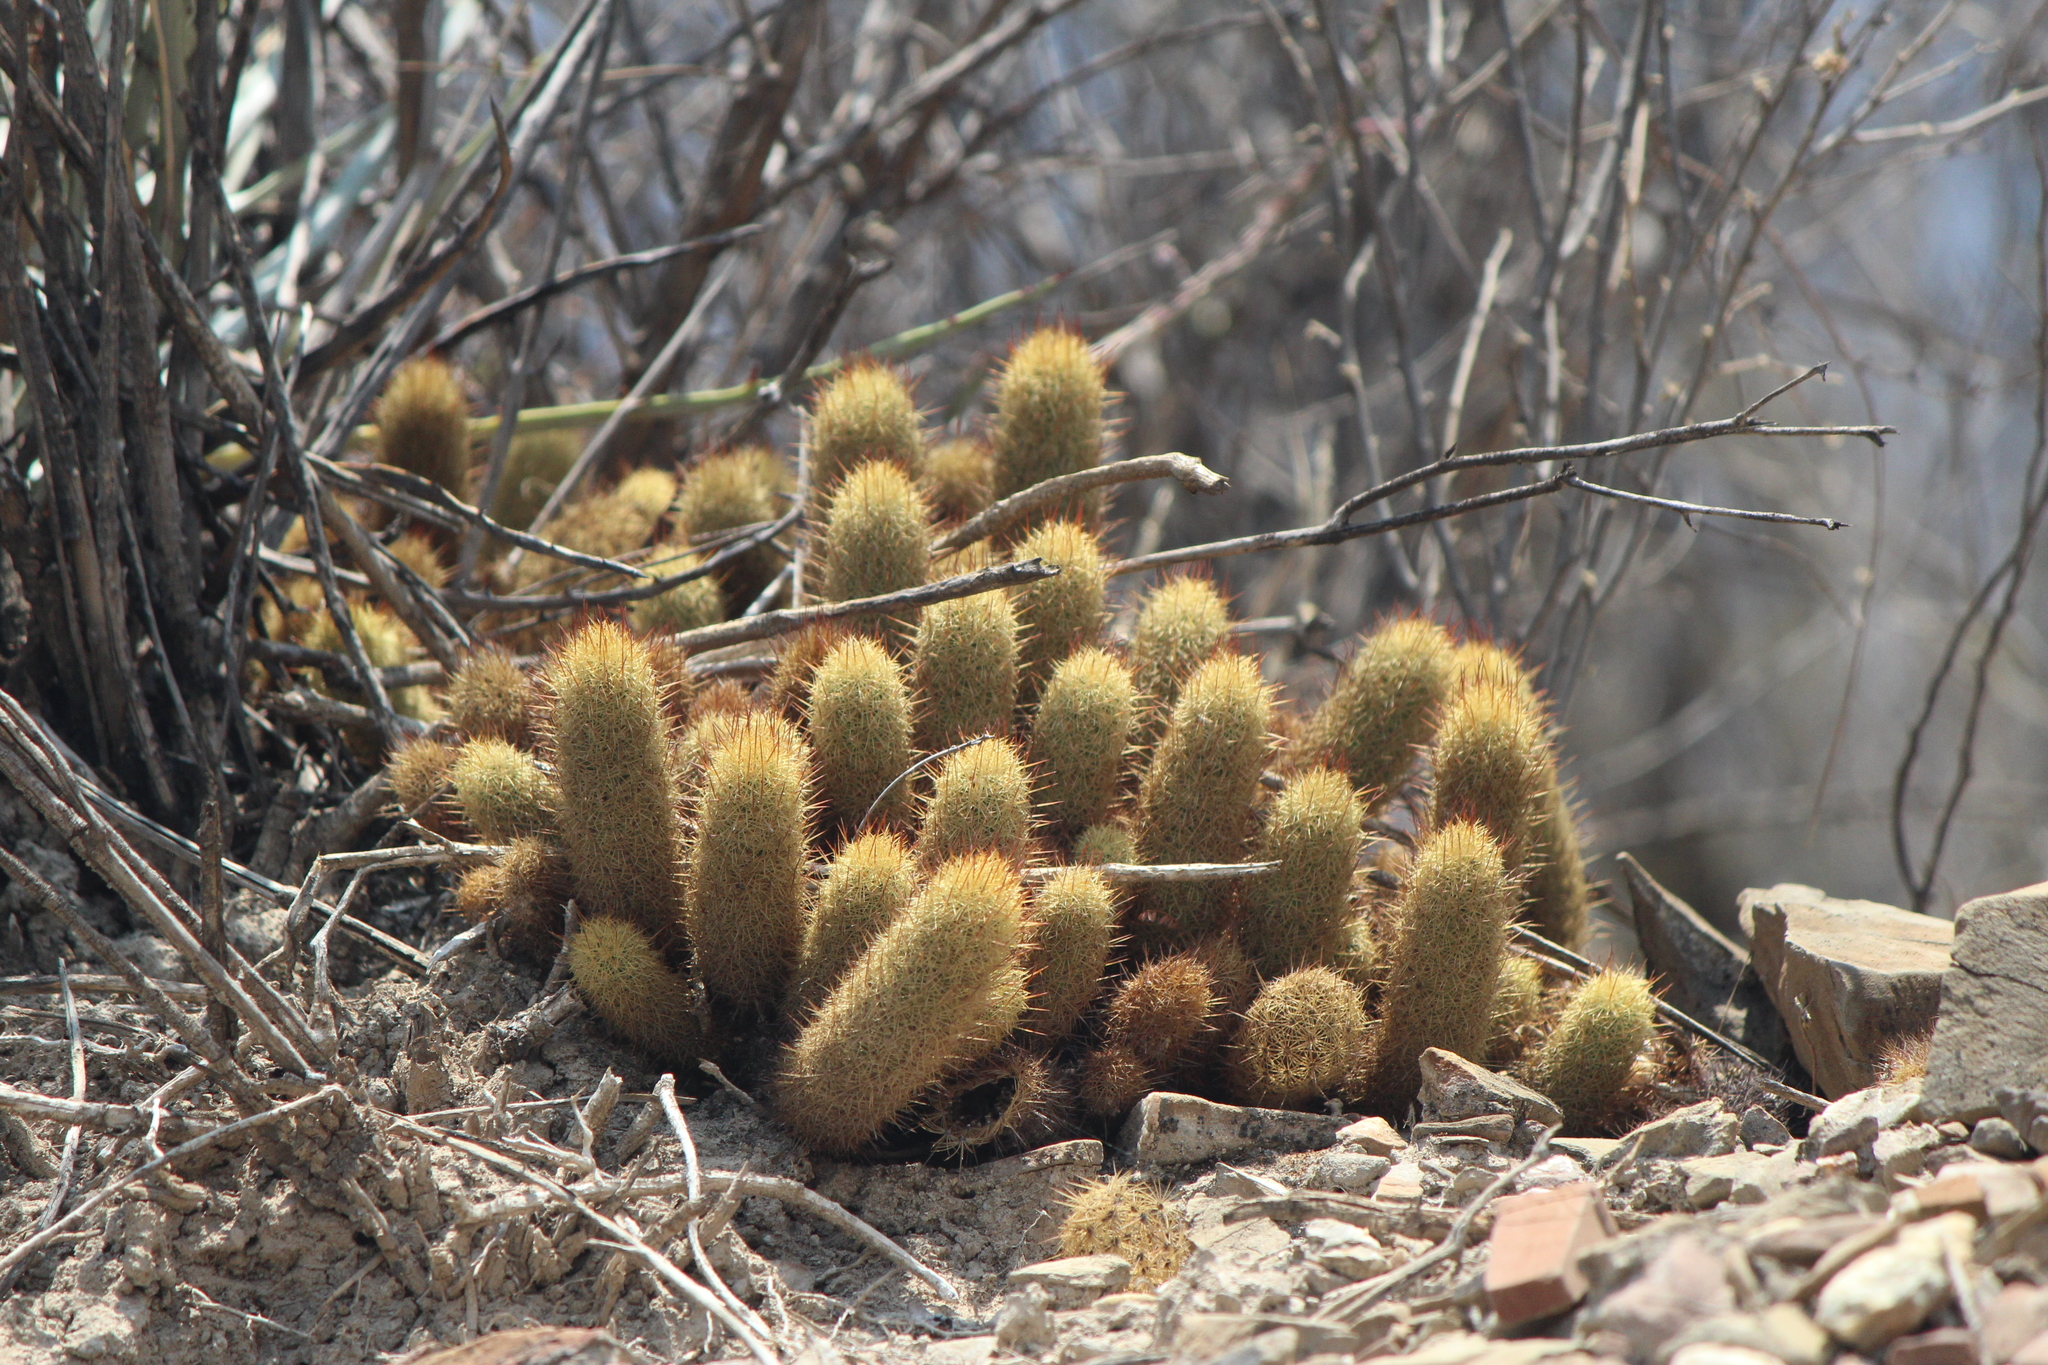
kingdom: Plantae
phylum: Tracheophyta
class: Magnoliopsida
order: Caryophyllales
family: Cactaceae
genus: Mammillaria
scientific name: Mammillaria elongata
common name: Golden star cactus
